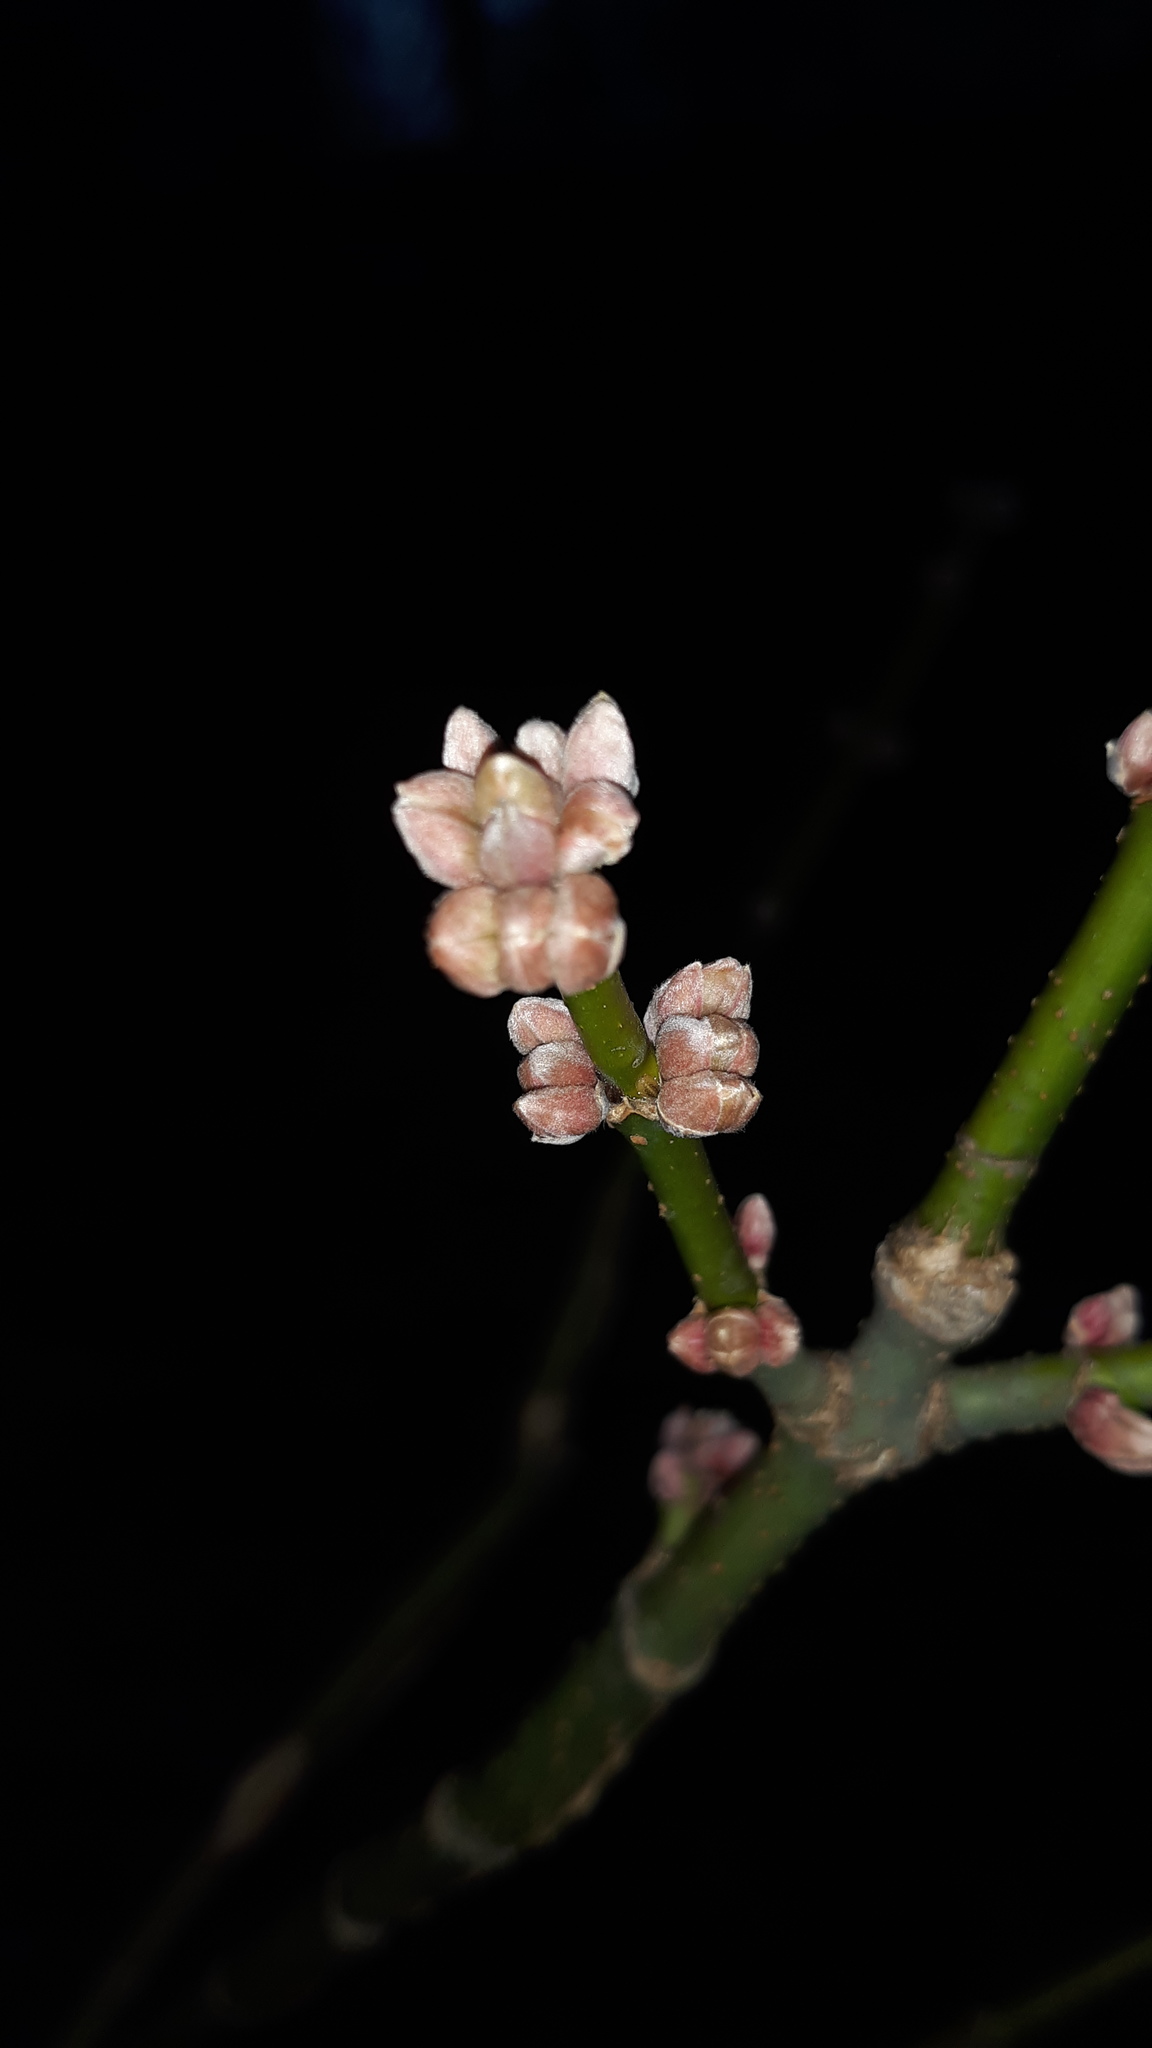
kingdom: Plantae
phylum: Tracheophyta
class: Magnoliopsida
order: Sapindales
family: Sapindaceae
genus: Acer
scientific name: Acer negundo
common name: Ashleaf maple
